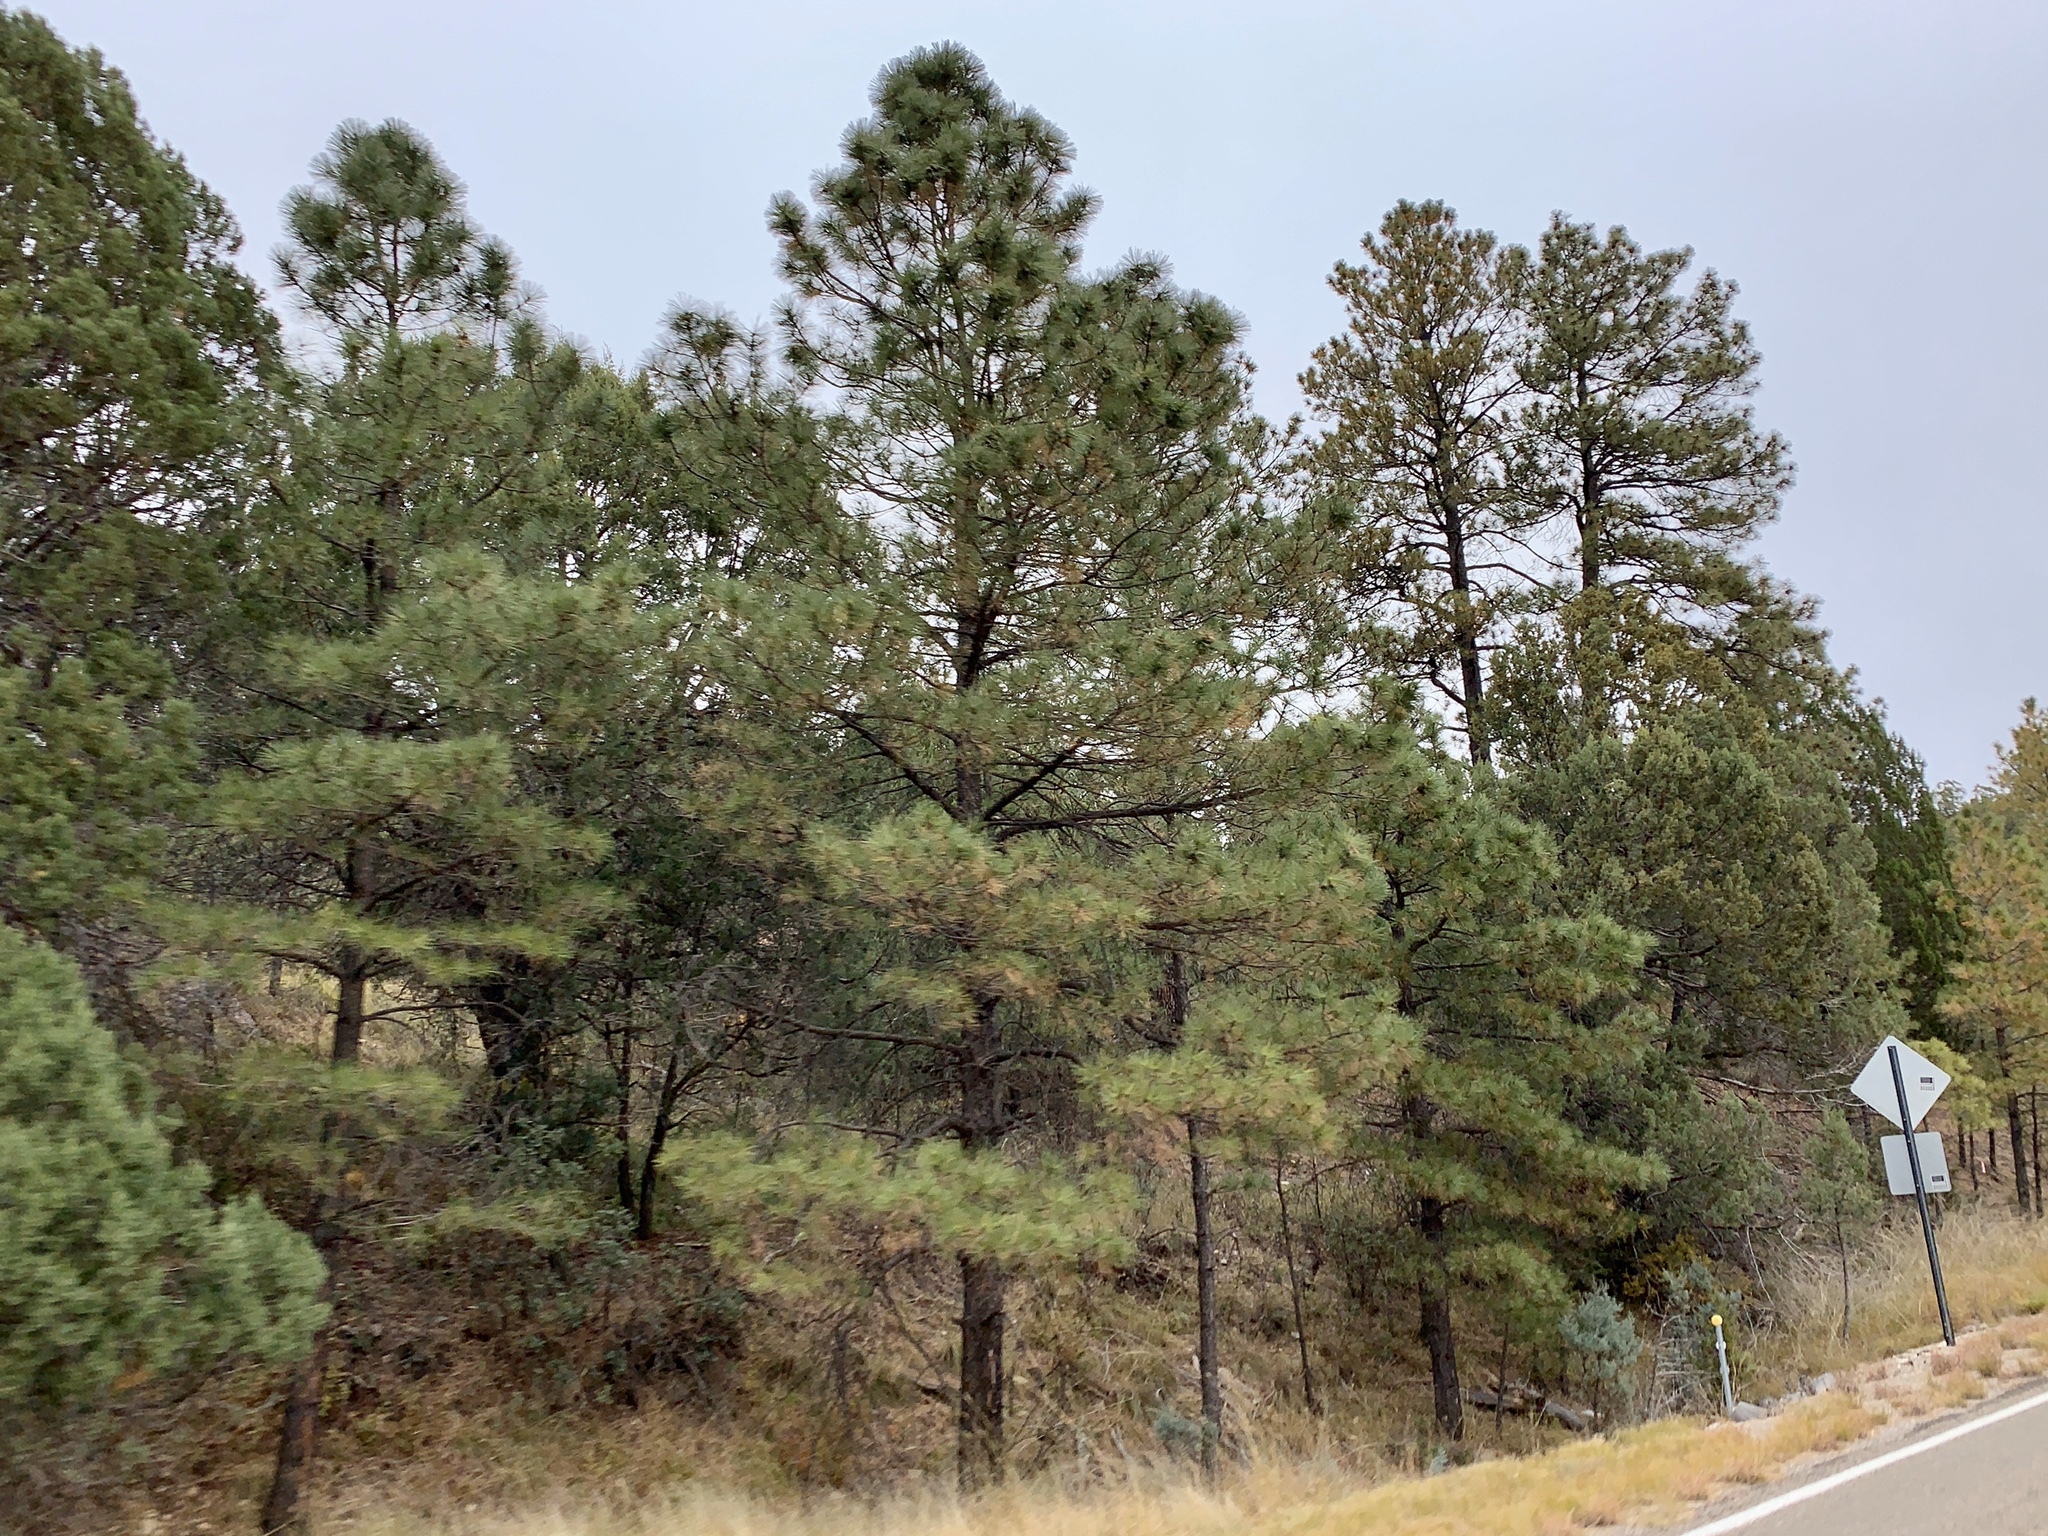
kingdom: Plantae
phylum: Tracheophyta
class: Pinopsida
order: Pinales
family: Pinaceae
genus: Pinus
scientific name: Pinus ponderosa
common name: Western yellow-pine
